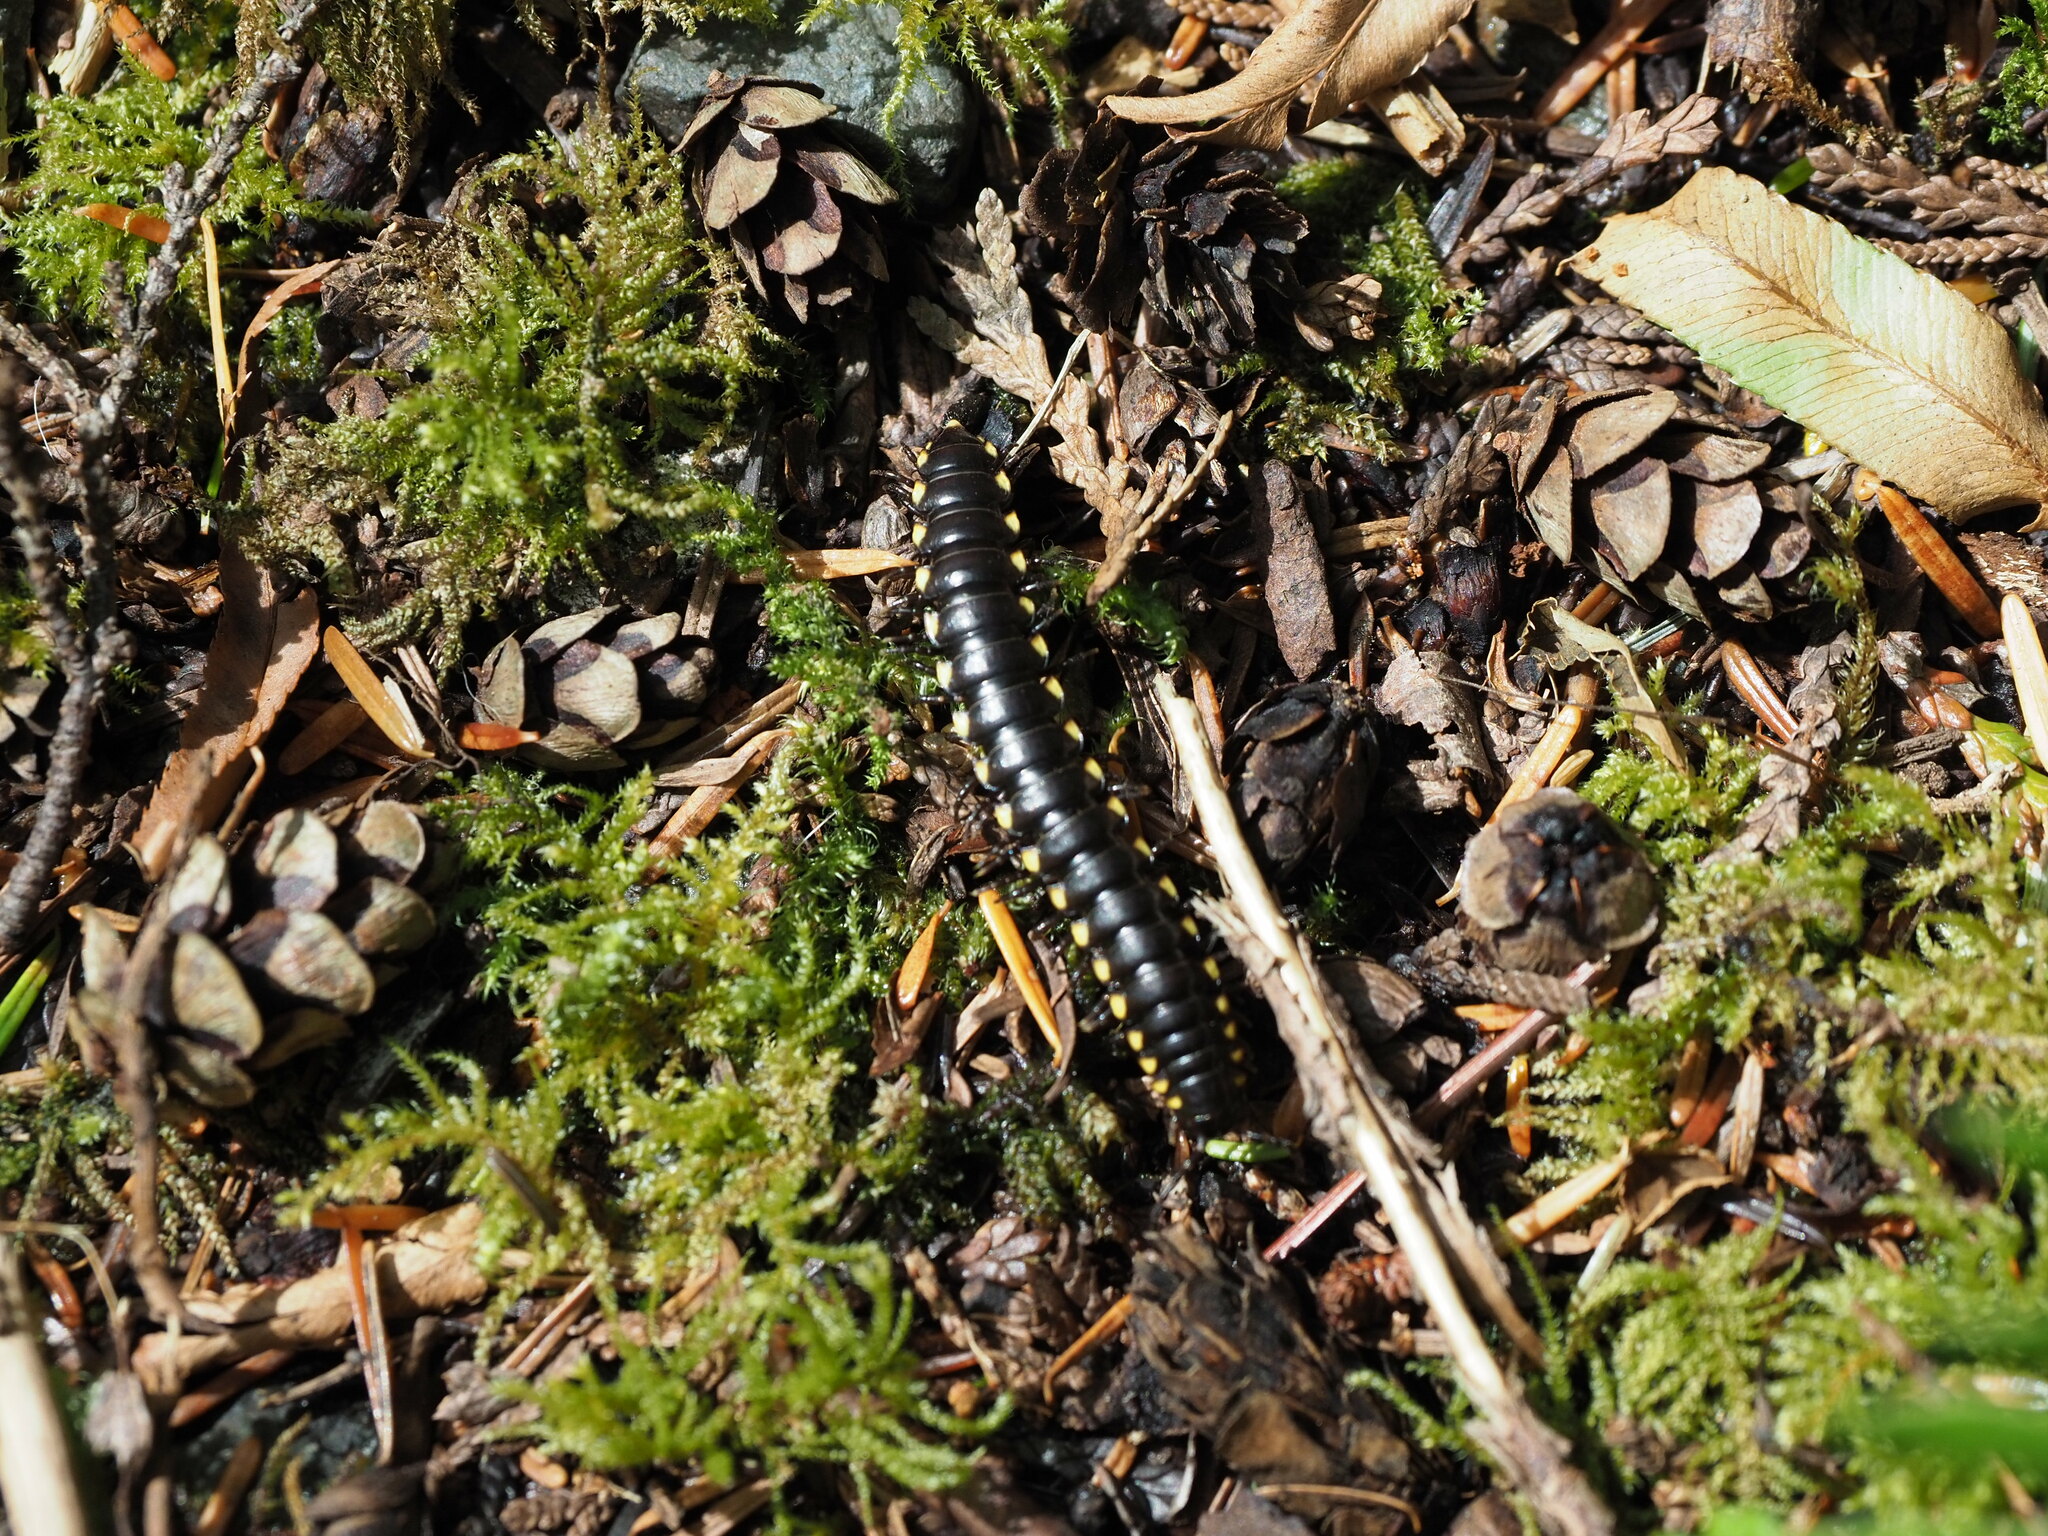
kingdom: Animalia
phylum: Arthropoda
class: Diplopoda
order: Polydesmida
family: Xystodesmidae
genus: Harpaphe
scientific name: Harpaphe haydeniana
